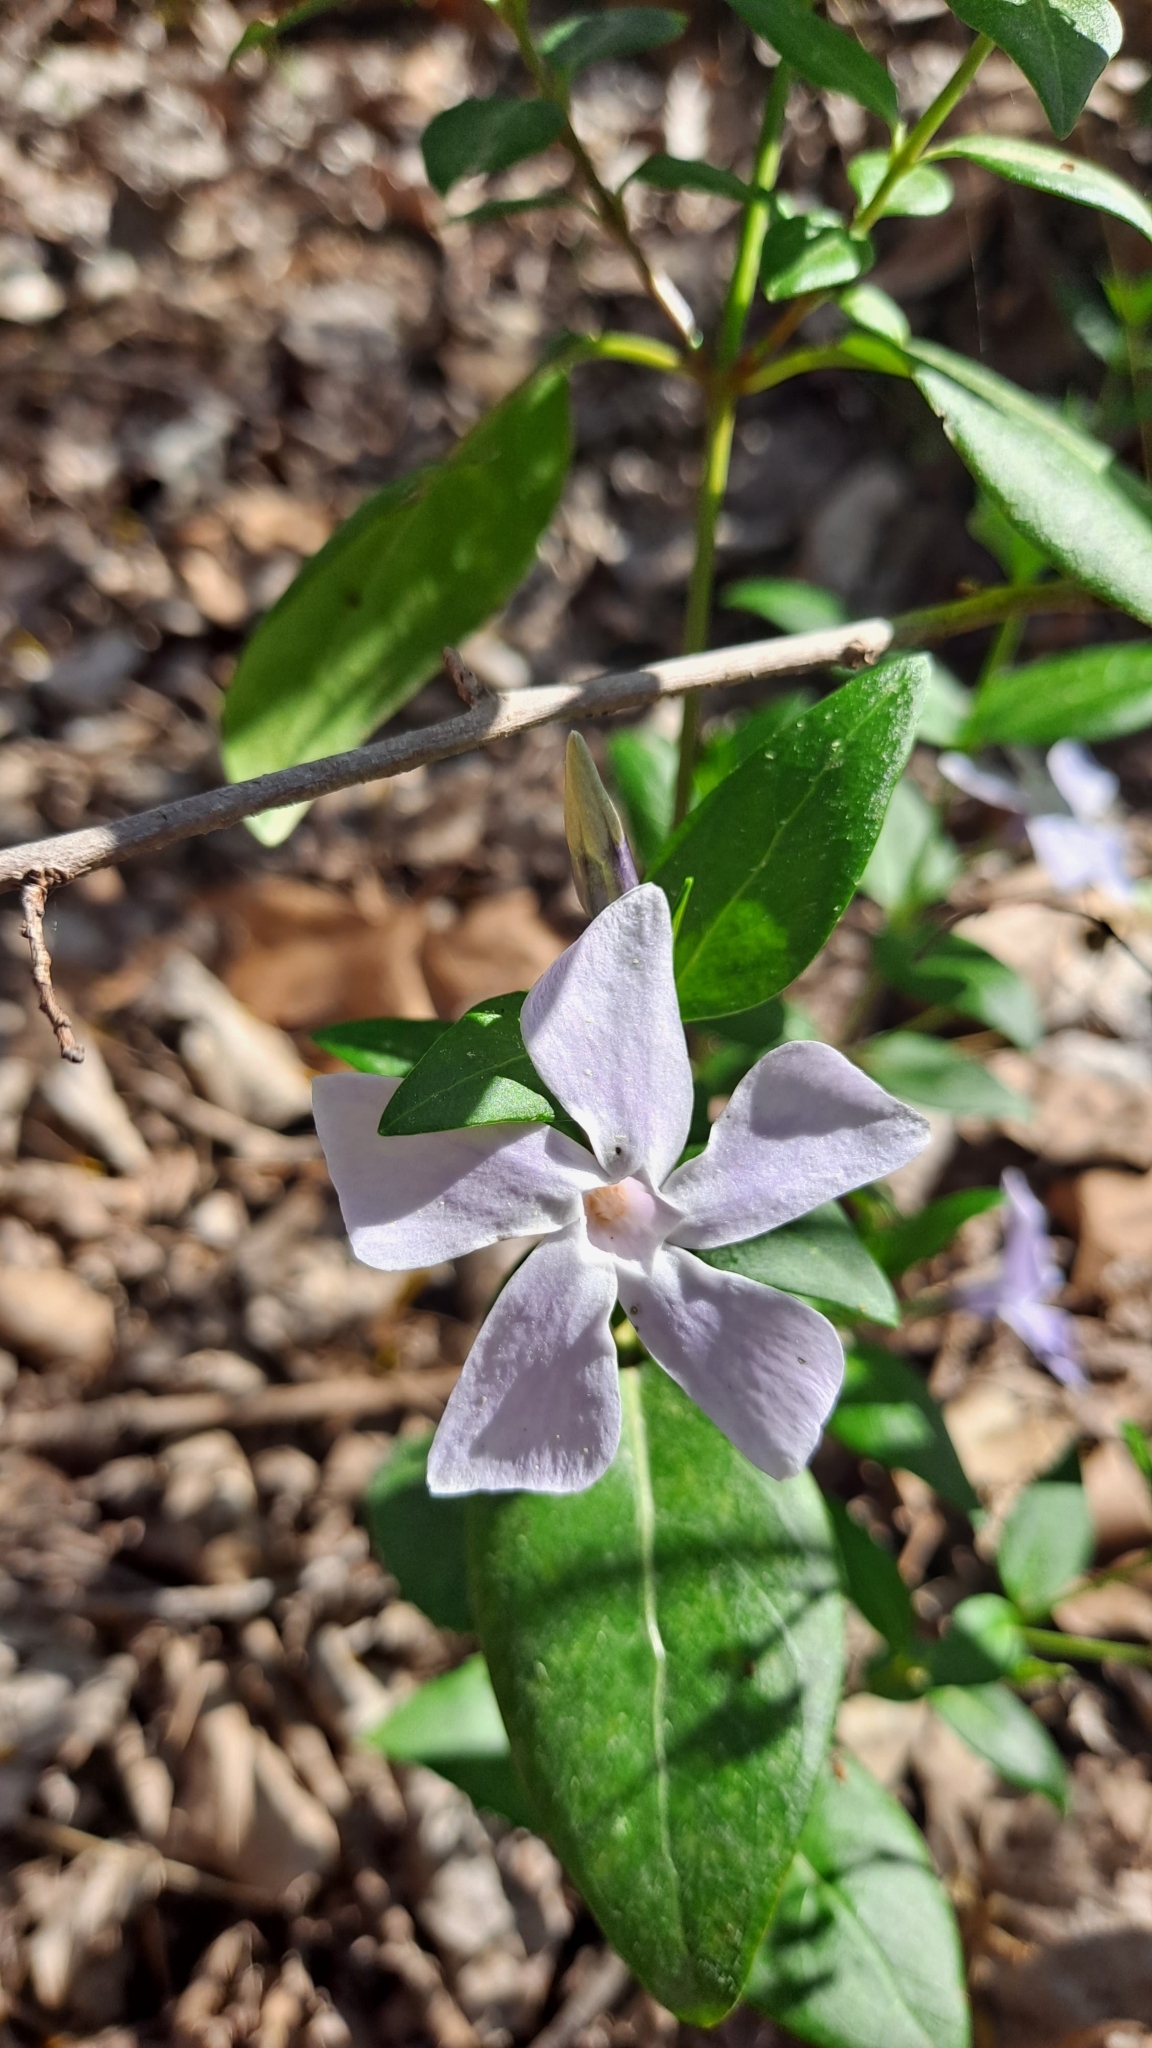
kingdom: Plantae
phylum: Tracheophyta
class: Magnoliopsida
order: Gentianales
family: Apocynaceae
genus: Vinca
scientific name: Vinca difformis
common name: Intermediate periwinkle
